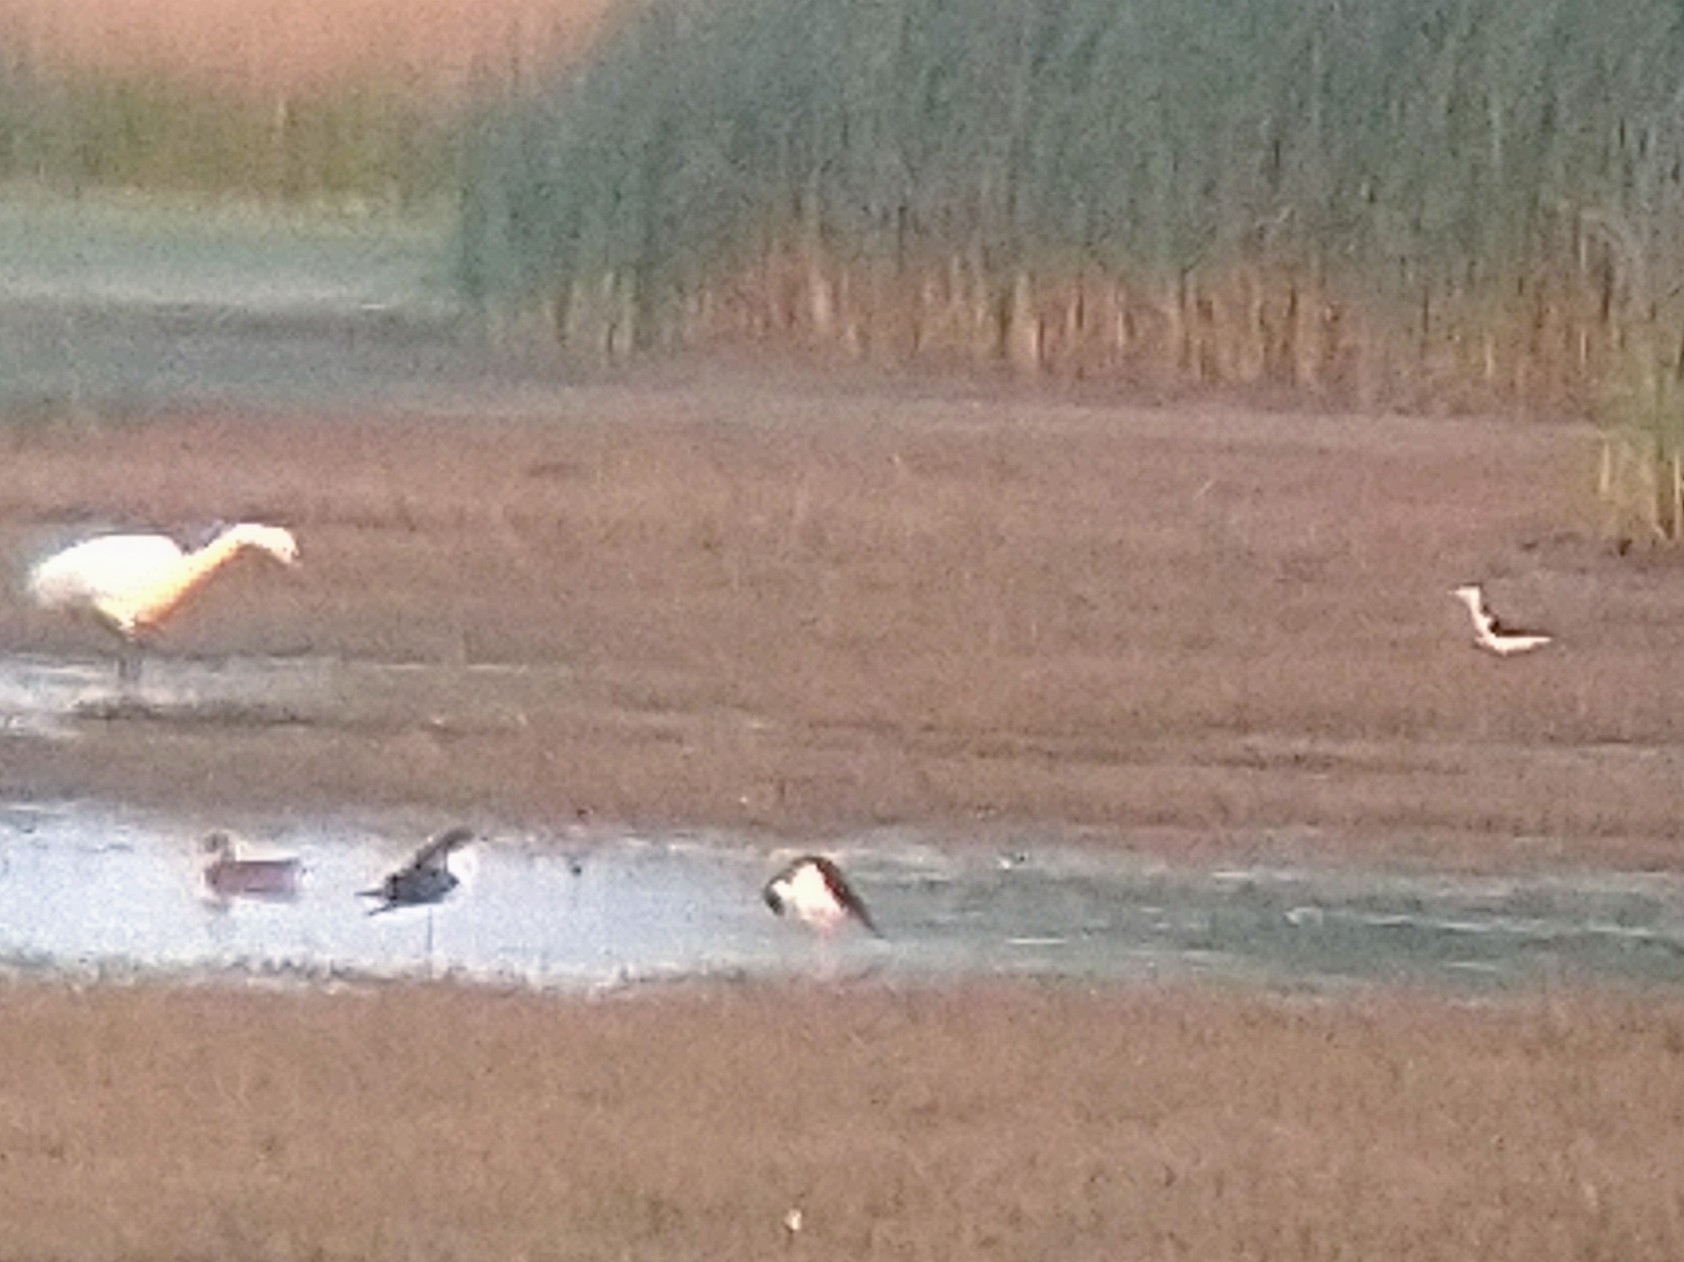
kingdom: Animalia
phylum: Chordata
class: Aves
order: Charadriiformes
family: Recurvirostridae
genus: Himantopus
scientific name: Himantopus mexicanus
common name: Black-necked stilt
